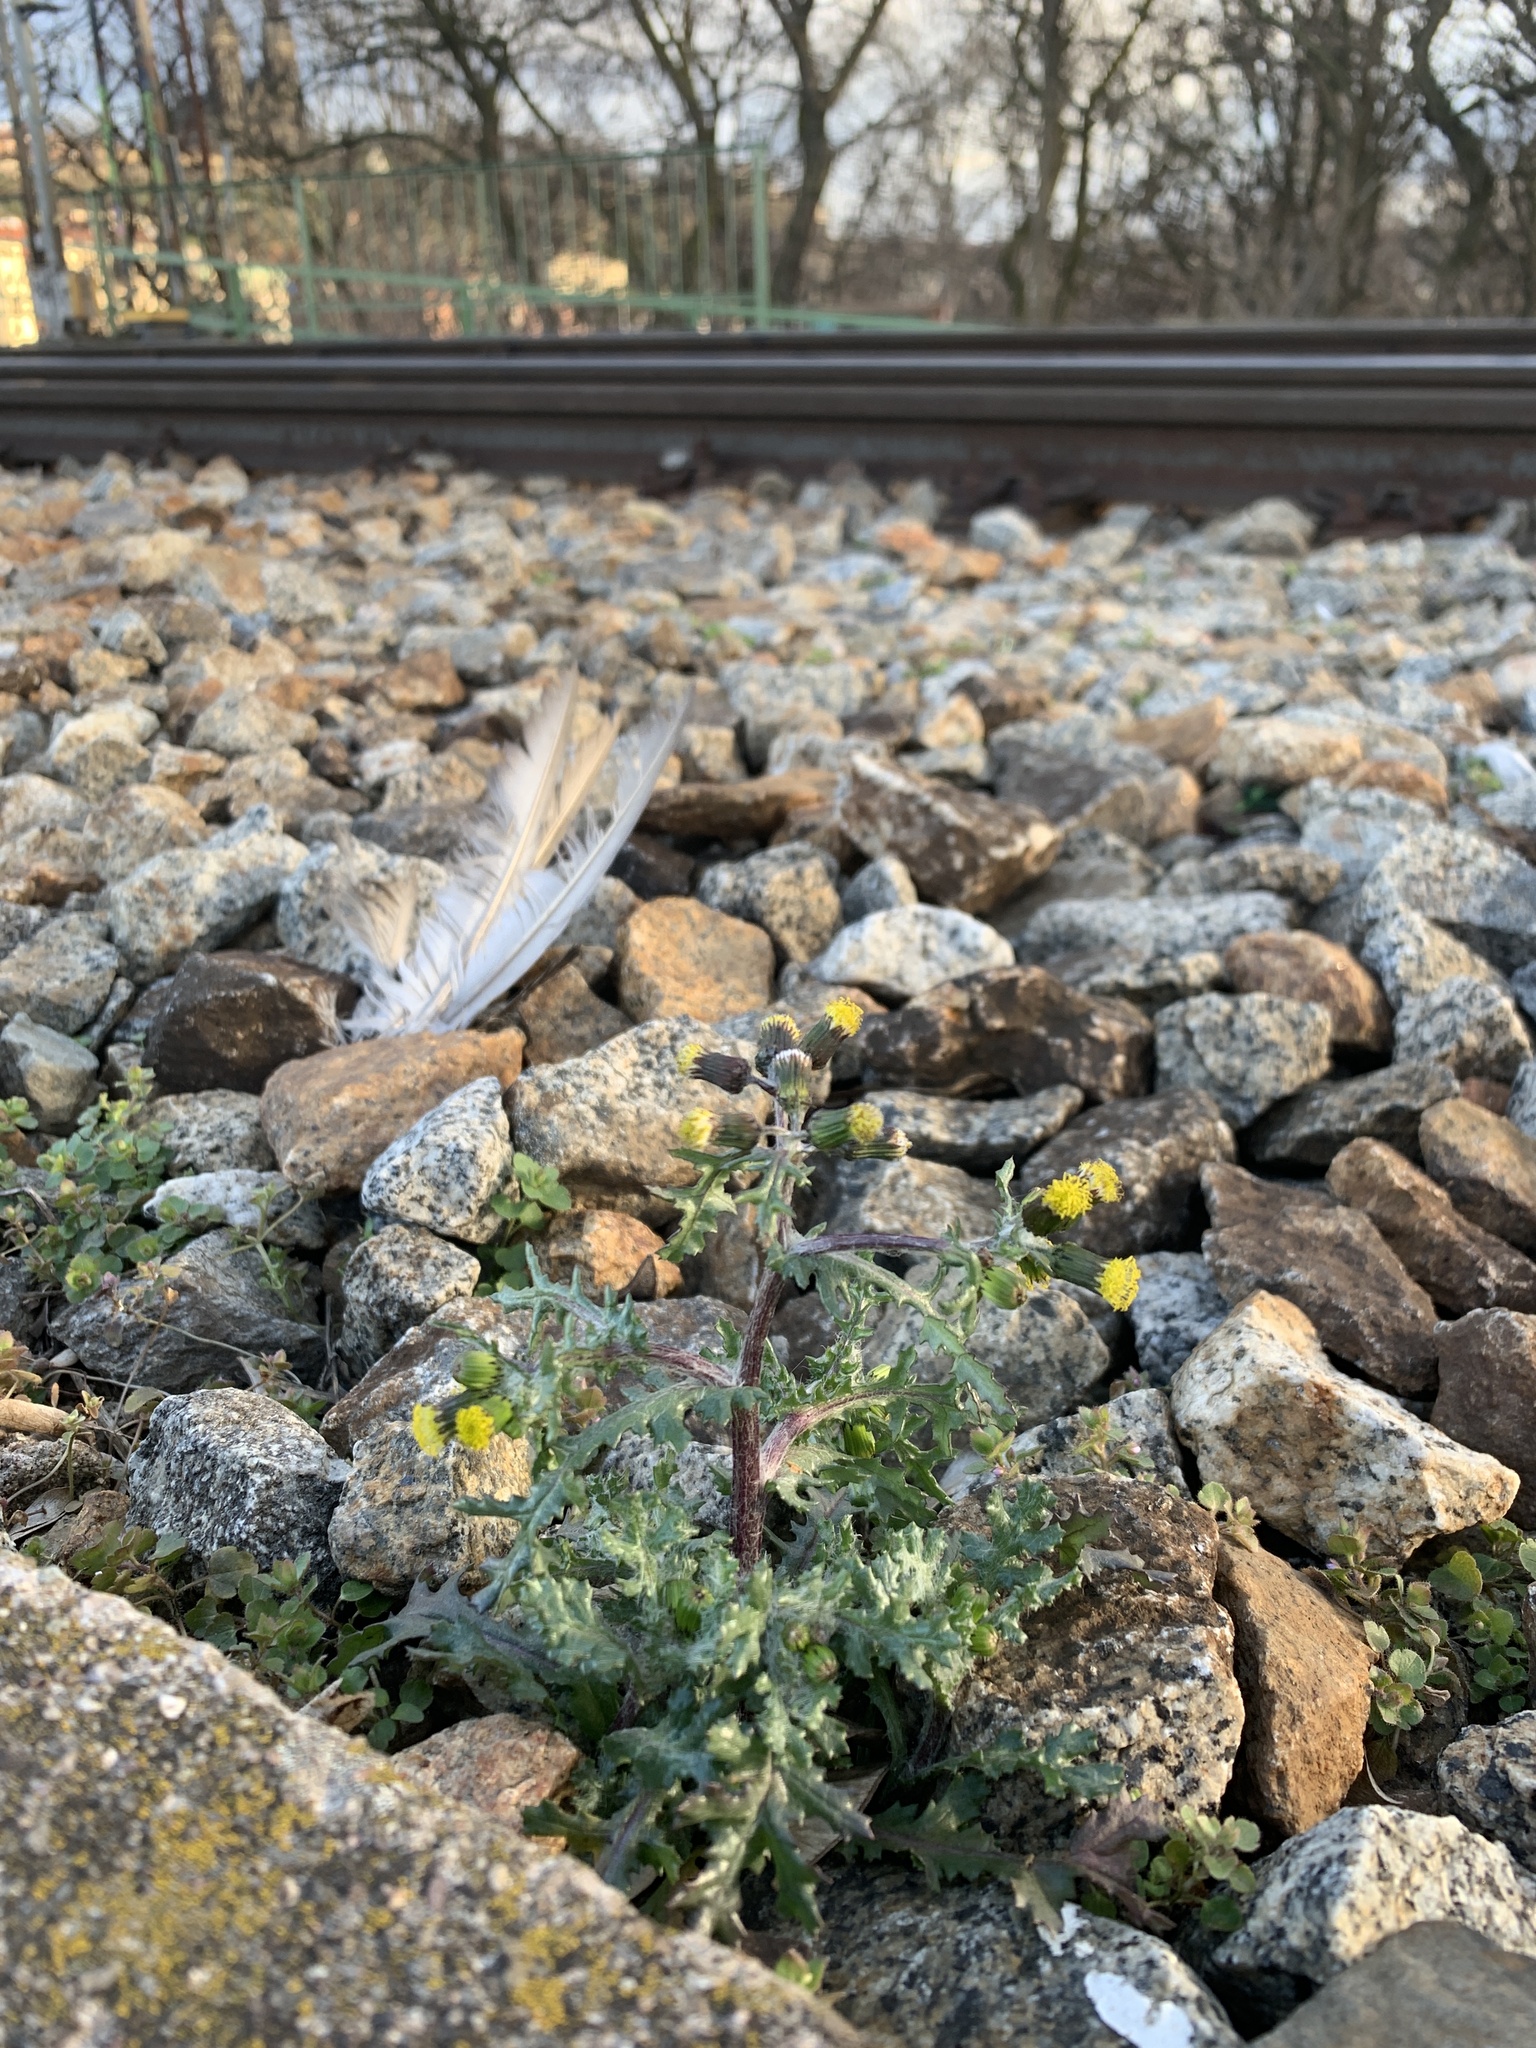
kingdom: Plantae
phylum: Tracheophyta
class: Magnoliopsida
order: Asterales
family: Asteraceae
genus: Senecio
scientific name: Senecio vulgaris
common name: Old-man-in-the-spring
